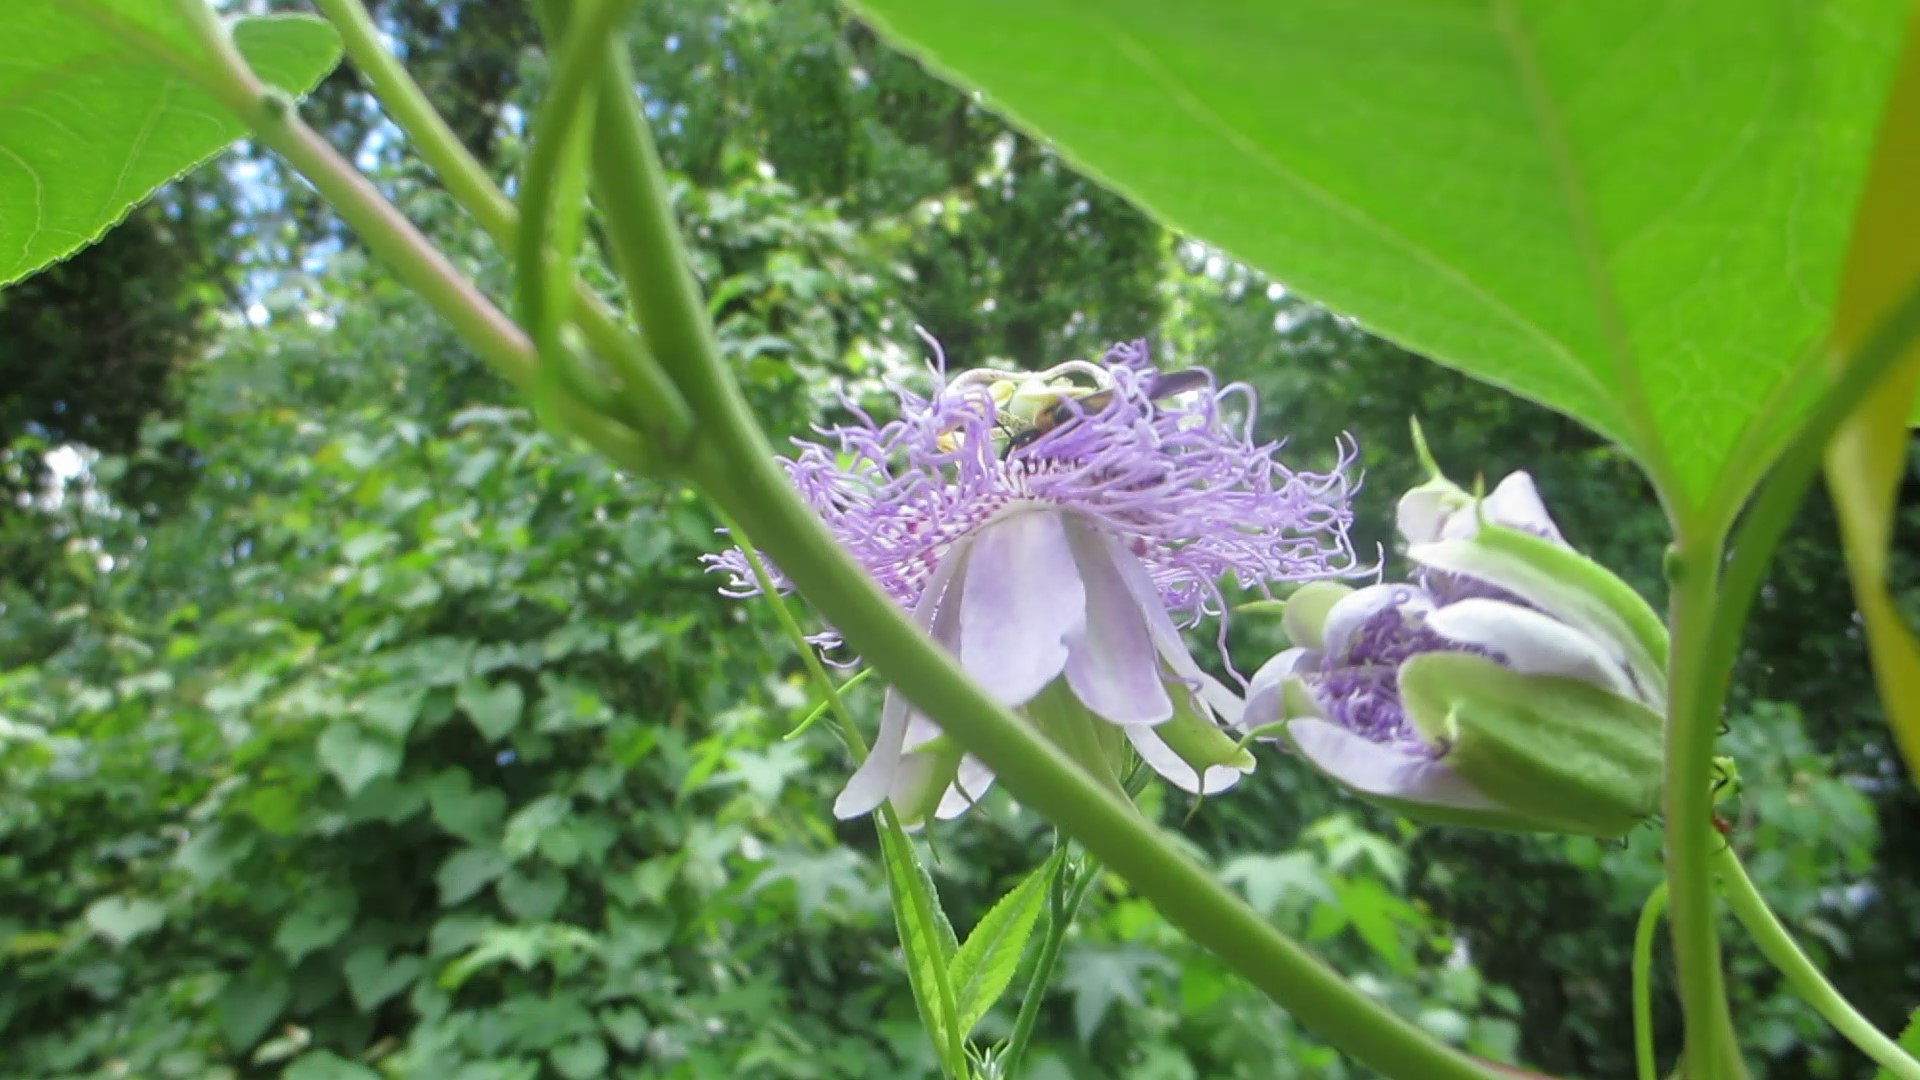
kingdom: Animalia
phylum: Arthropoda
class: Insecta
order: Hymenoptera
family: Apidae
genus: Xylocopa
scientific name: Xylocopa virginica
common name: Carpenter bee
